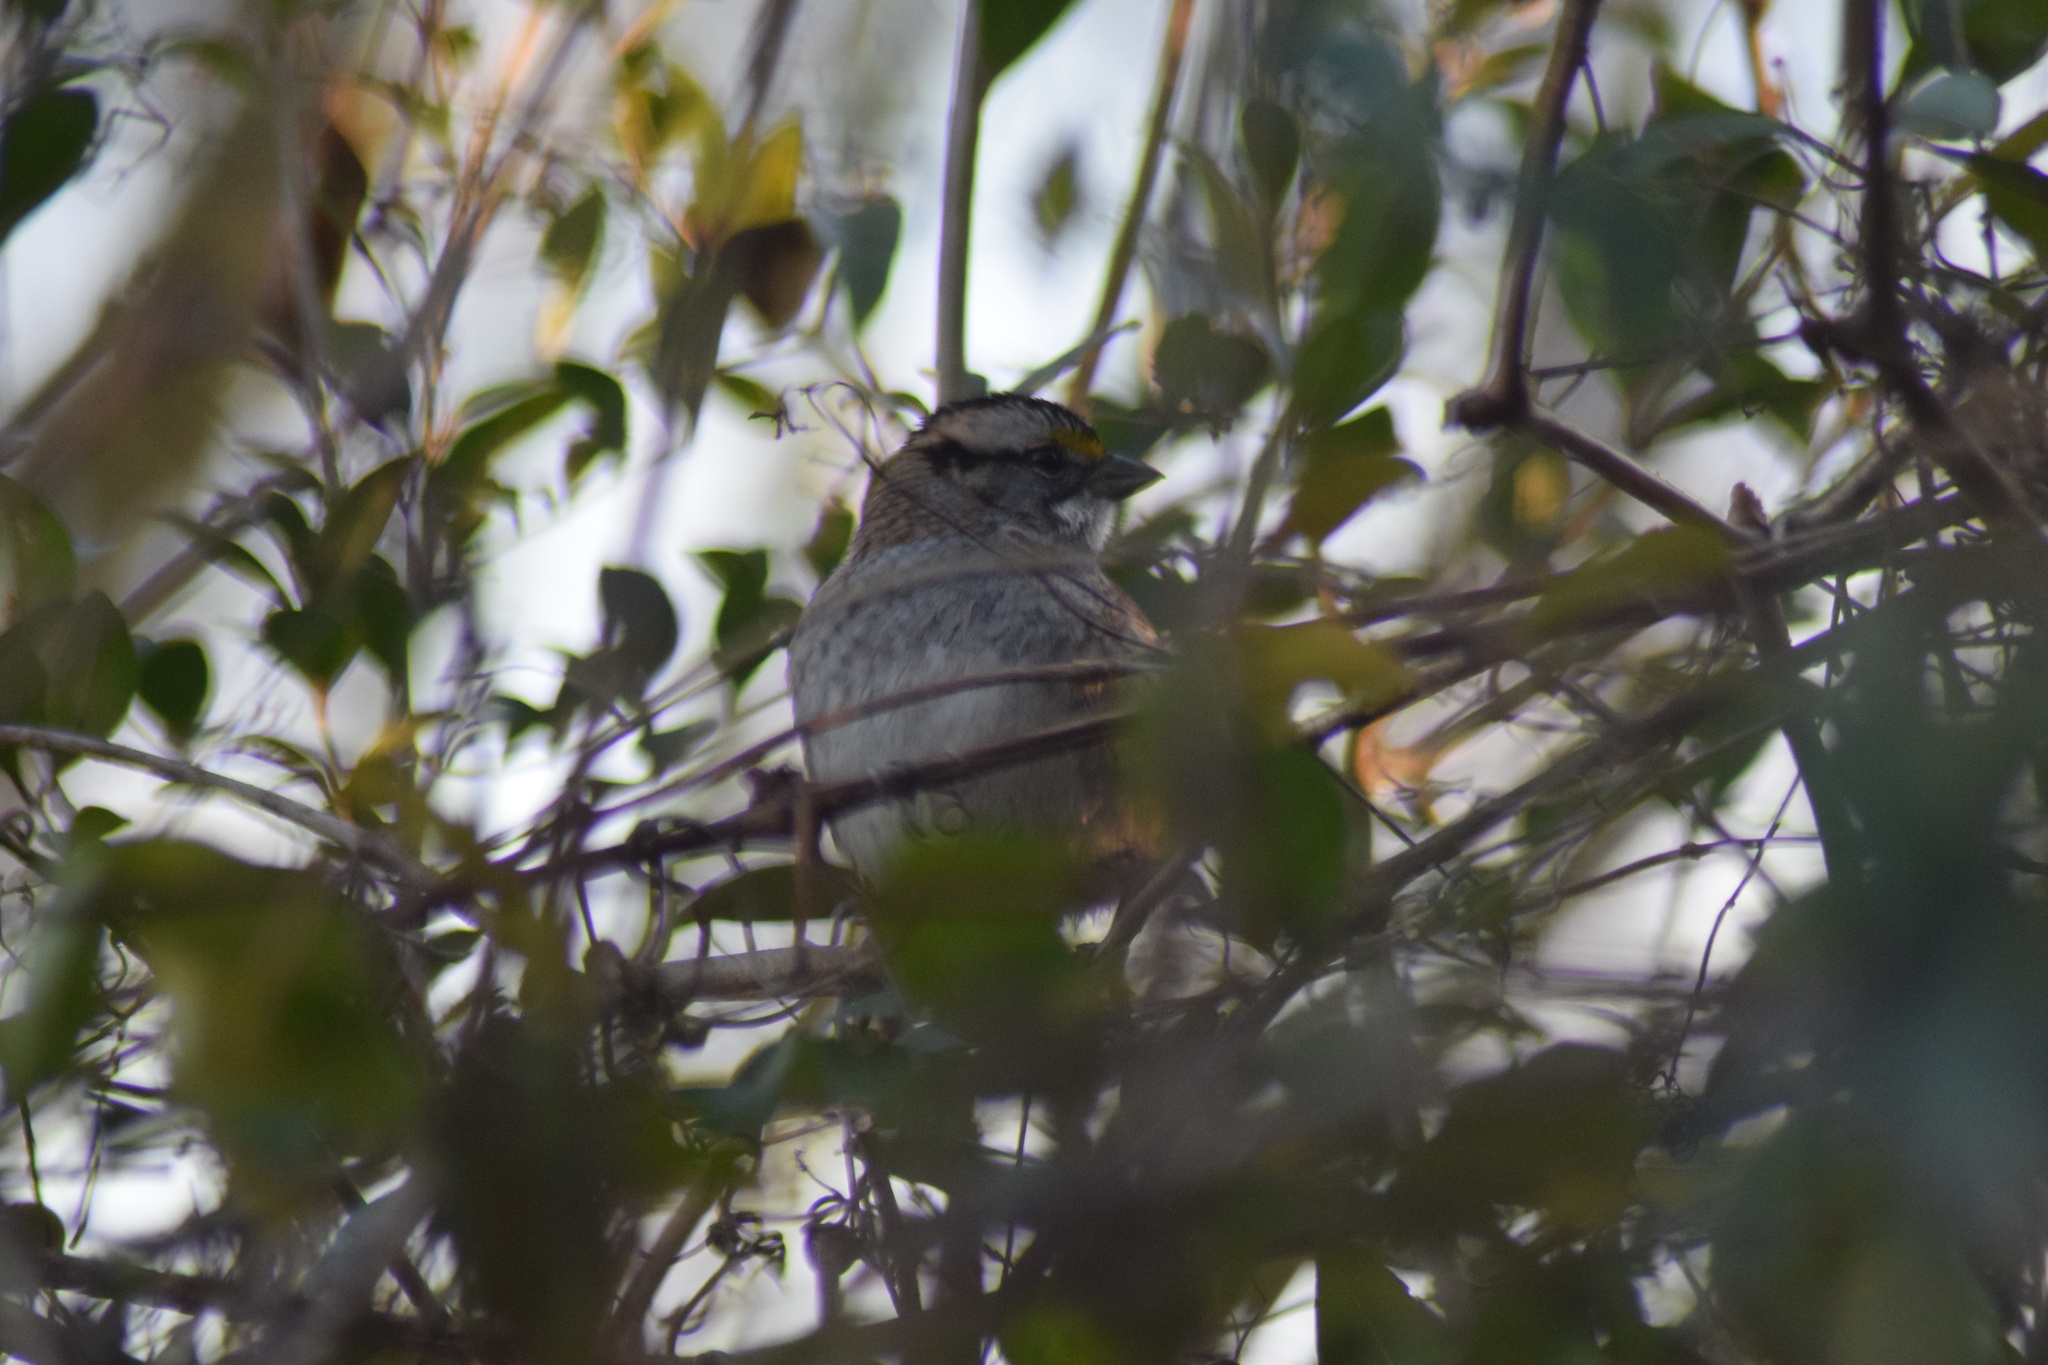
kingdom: Animalia
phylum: Chordata
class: Aves
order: Passeriformes
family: Passerellidae
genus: Zonotrichia
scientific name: Zonotrichia albicollis
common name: White-throated sparrow
